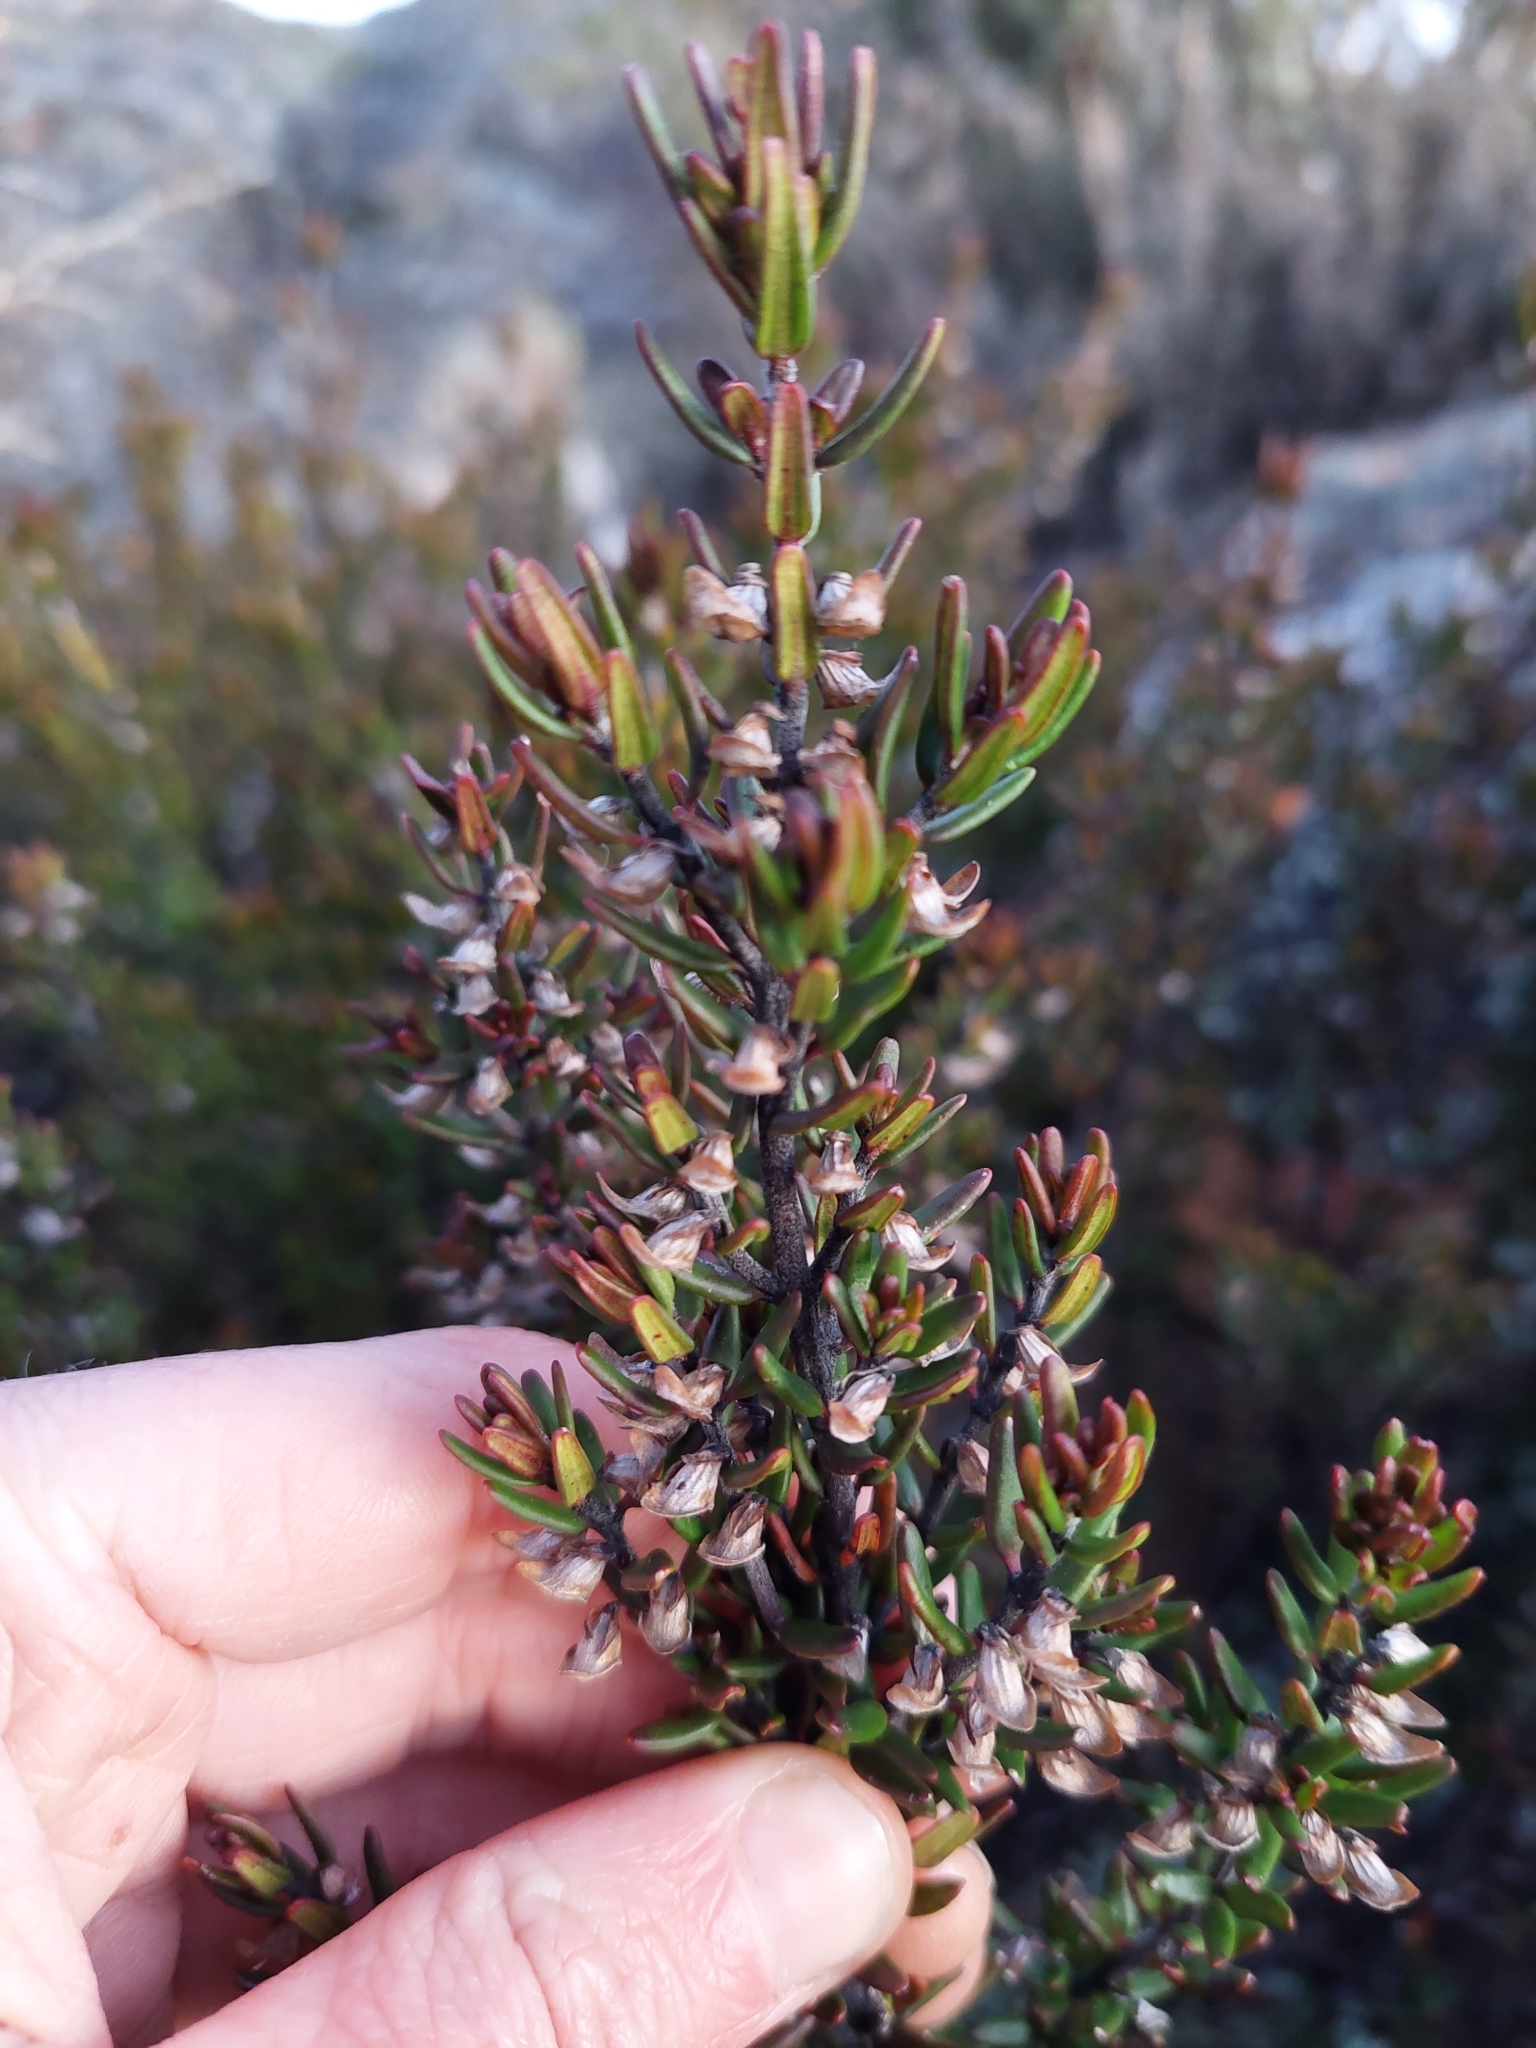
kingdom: Plantae
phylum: Tracheophyta
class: Magnoliopsida
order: Lamiales
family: Lamiaceae
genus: Prostanthera
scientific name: Prostanthera phylicifolia
